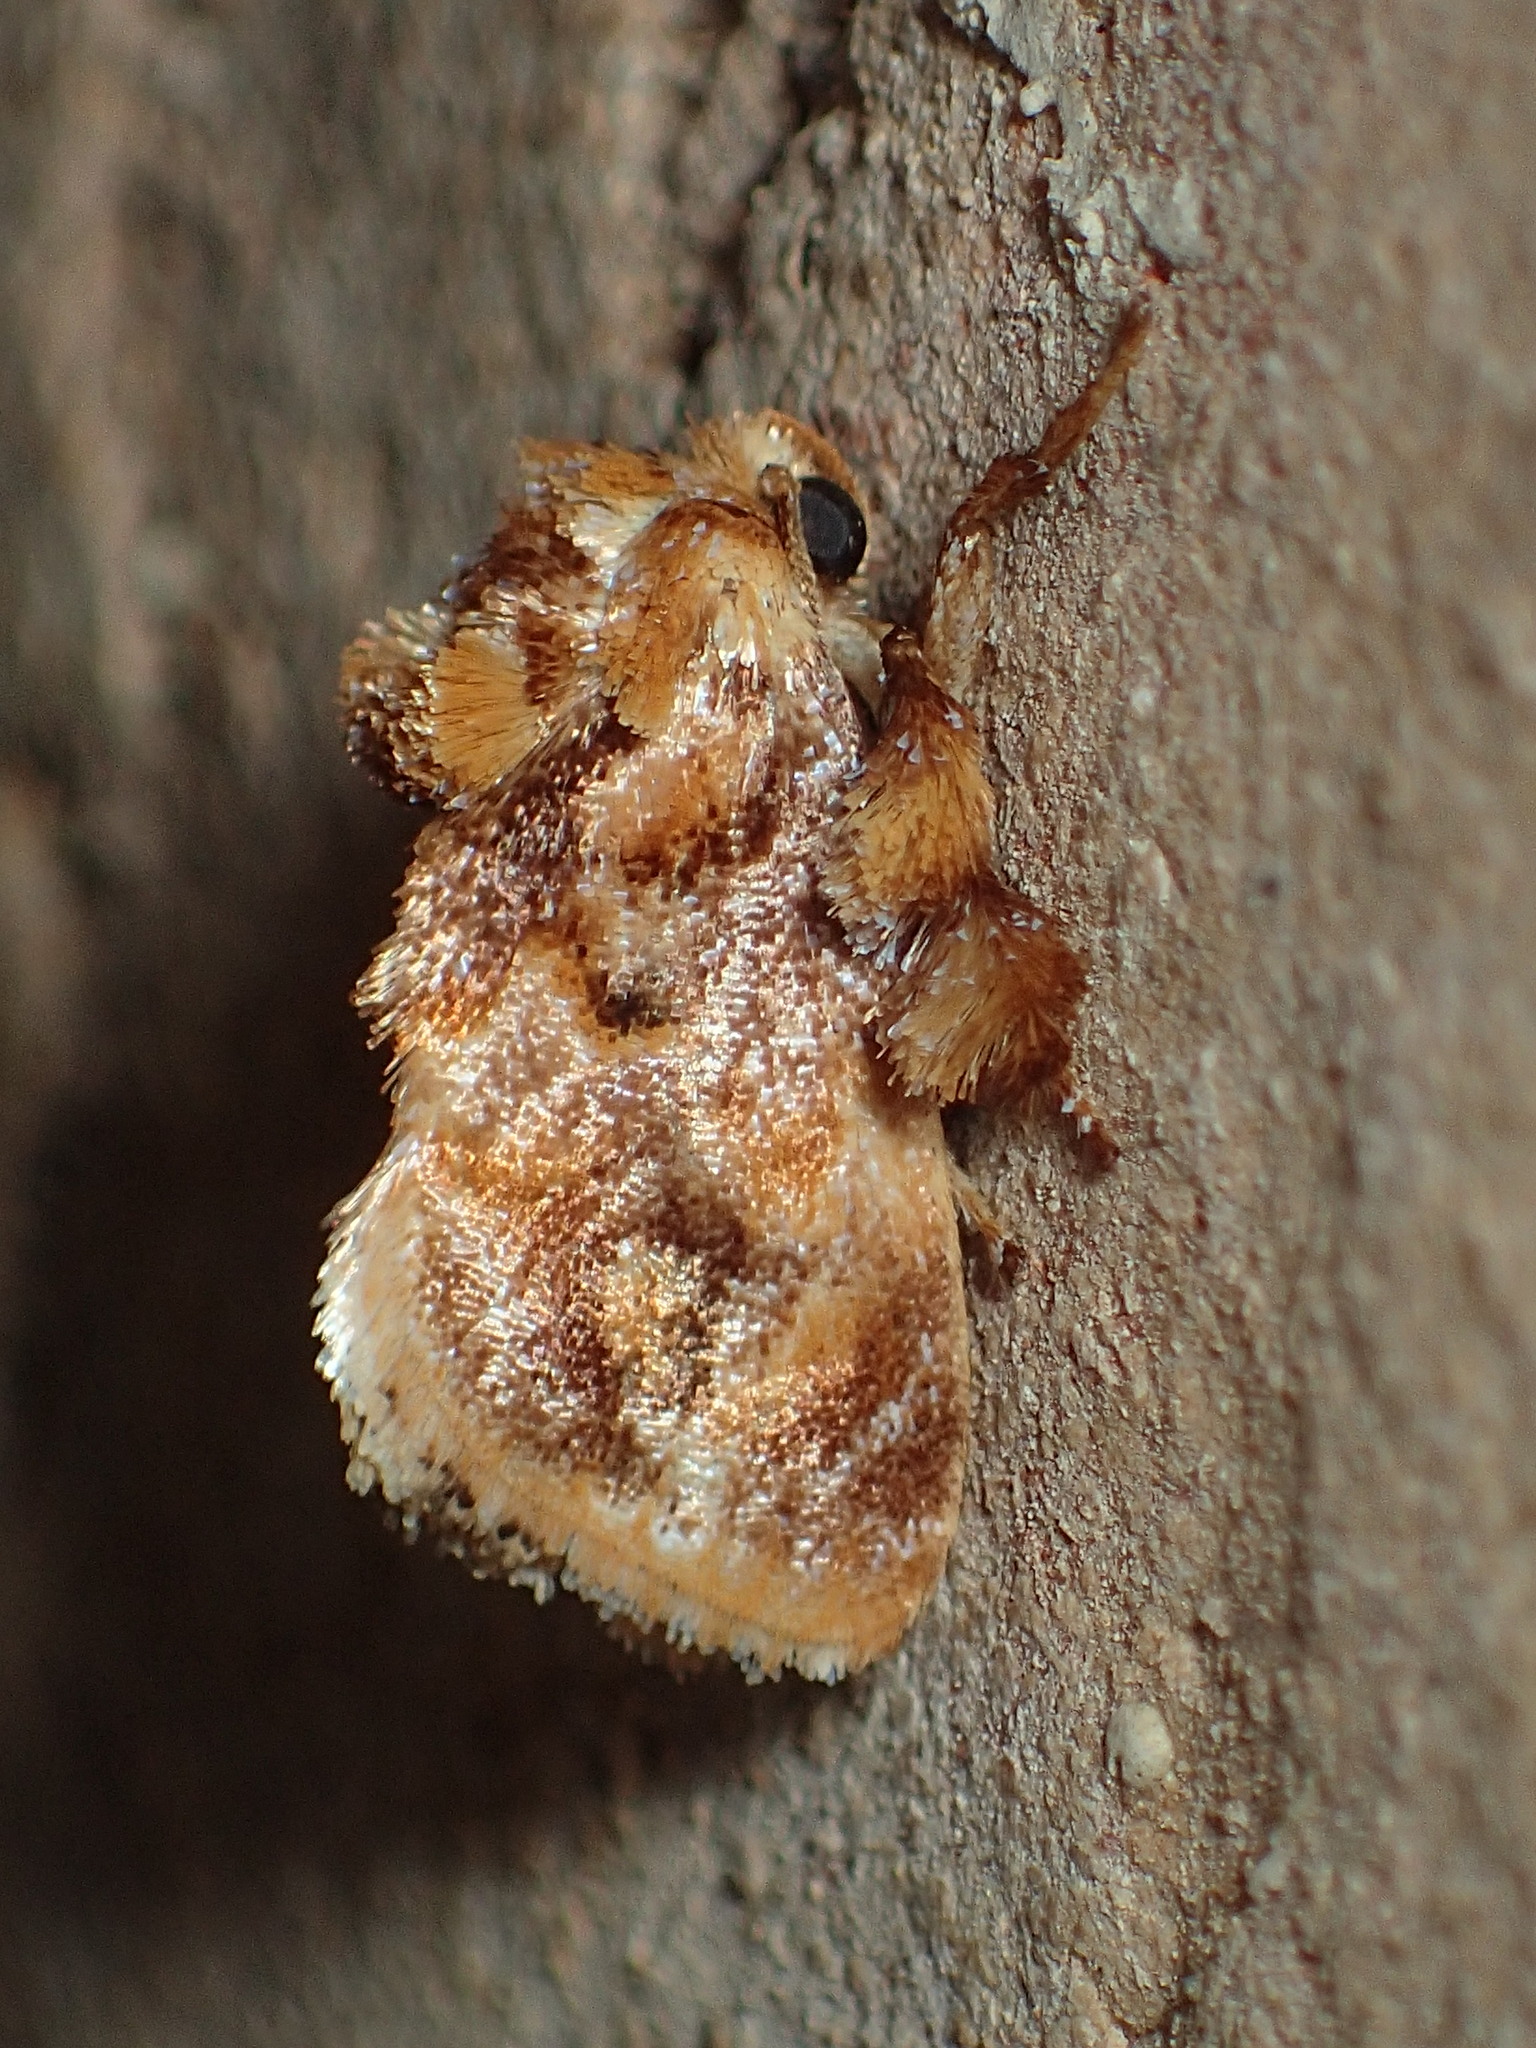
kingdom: Animalia
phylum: Arthropoda
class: Insecta
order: Lepidoptera
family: Limacodidae
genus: Isochaetes
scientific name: Isochaetes beutenmuelleri
